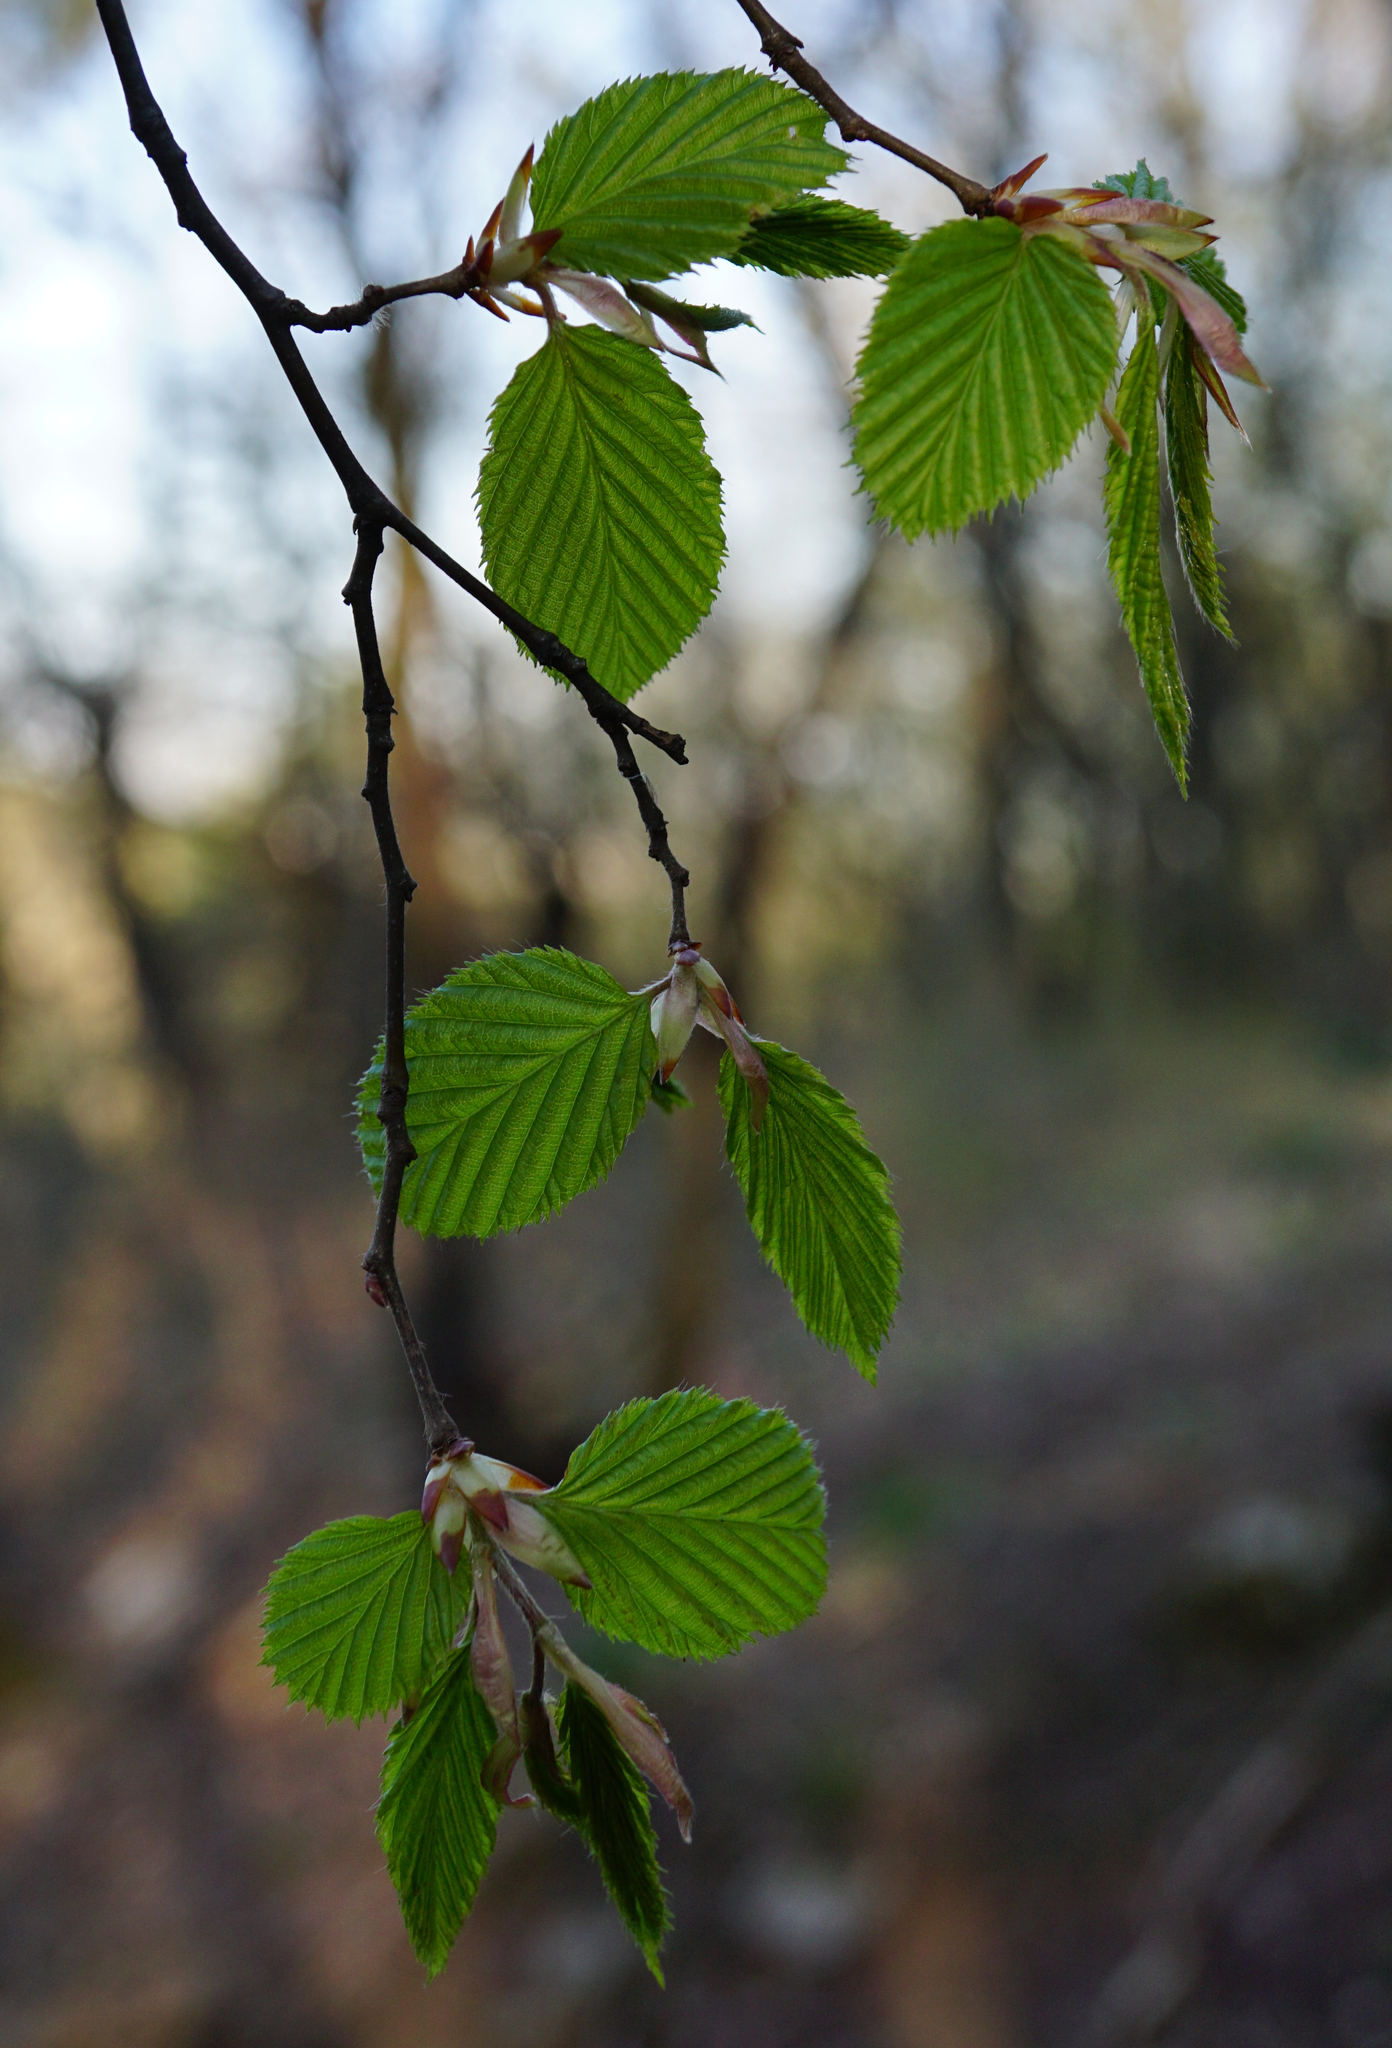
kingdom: Plantae
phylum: Tracheophyta
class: Magnoliopsida
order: Fagales
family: Betulaceae
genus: Carpinus
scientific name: Carpinus betulus
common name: Hornbeam
